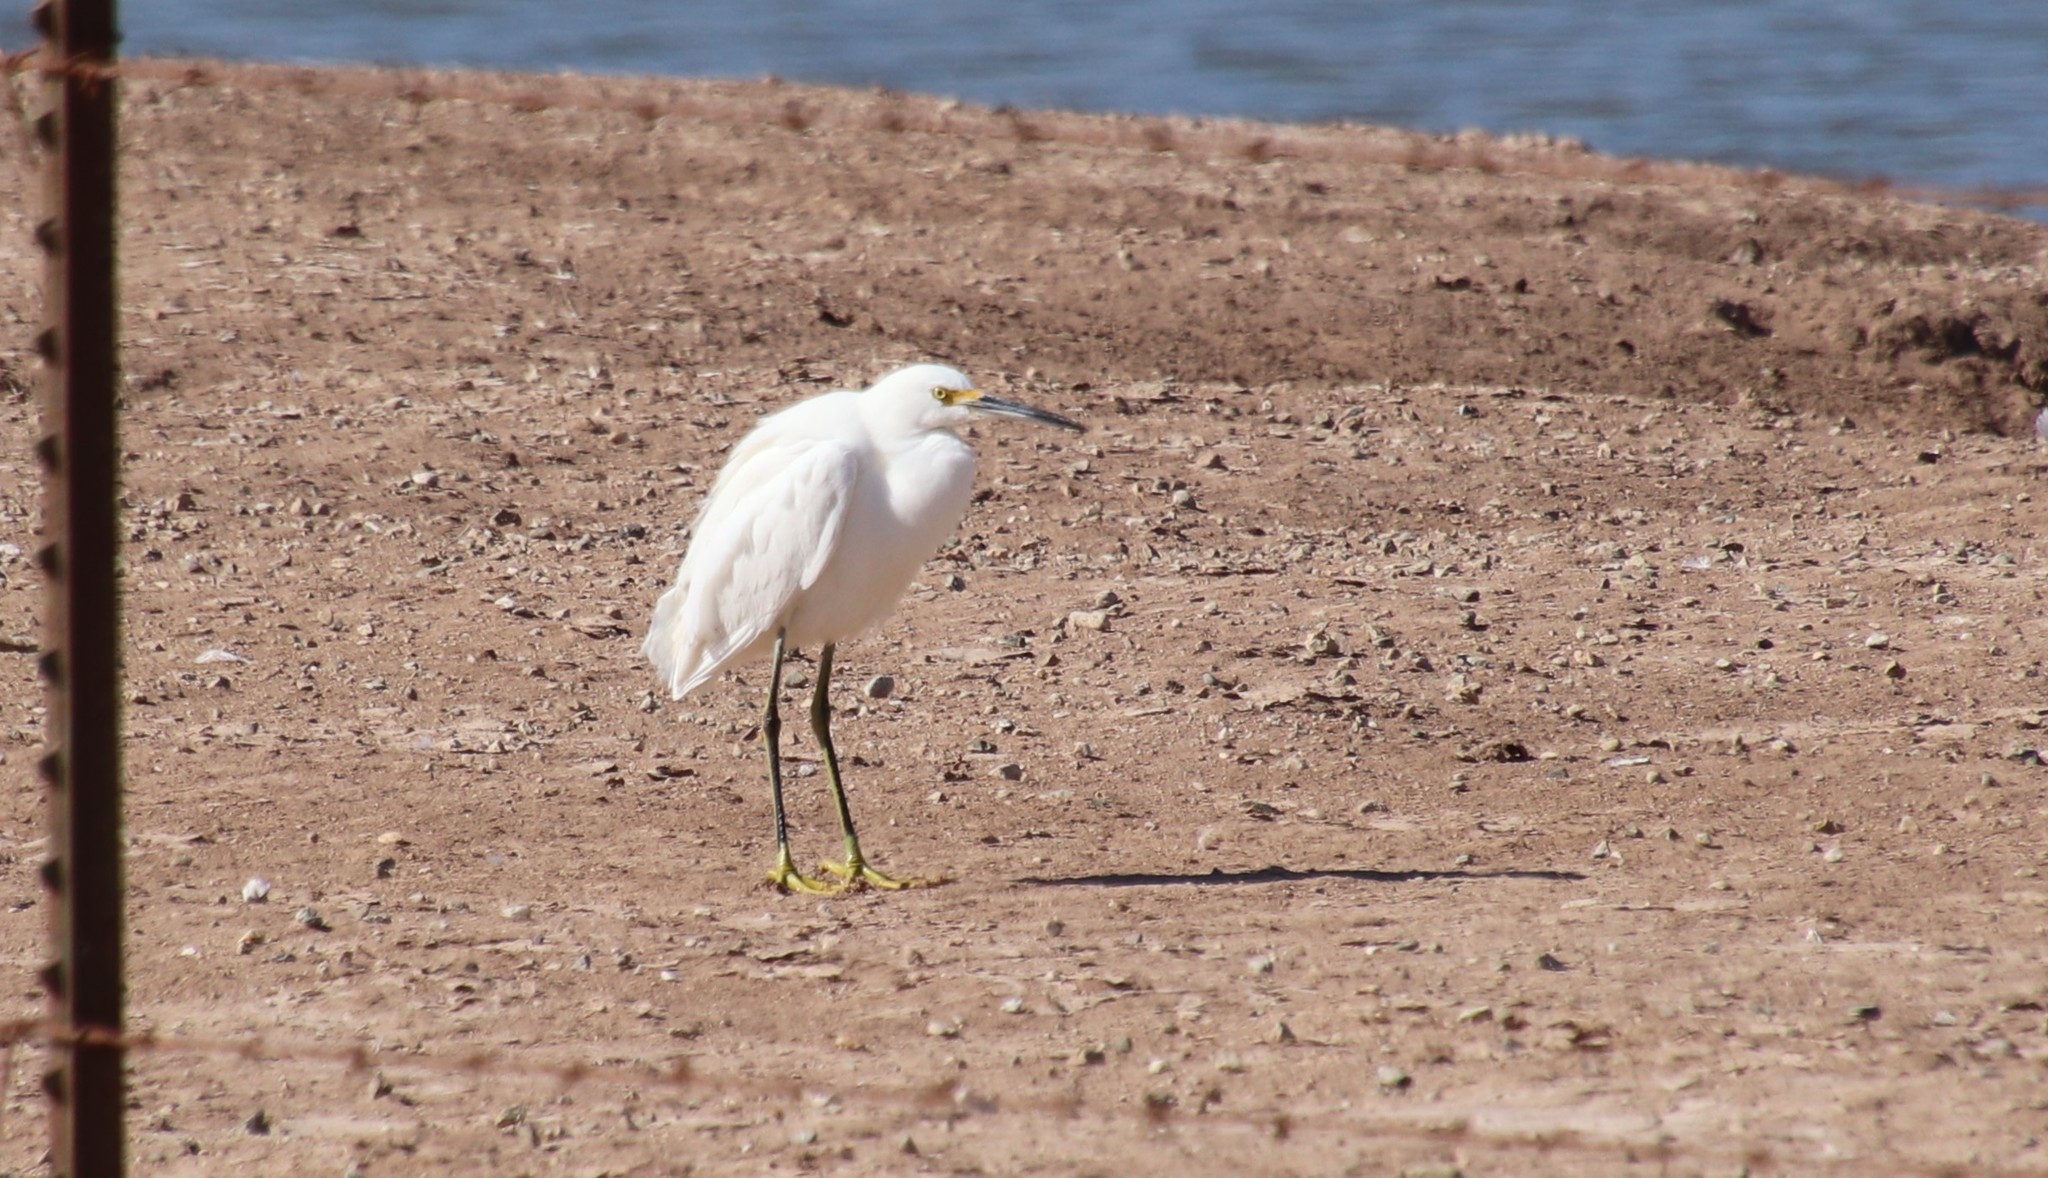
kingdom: Animalia
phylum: Chordata
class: Aves
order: Pelecaniformes
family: Ardeidae
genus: Egretta
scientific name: Egretta thula
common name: Snowy egret
